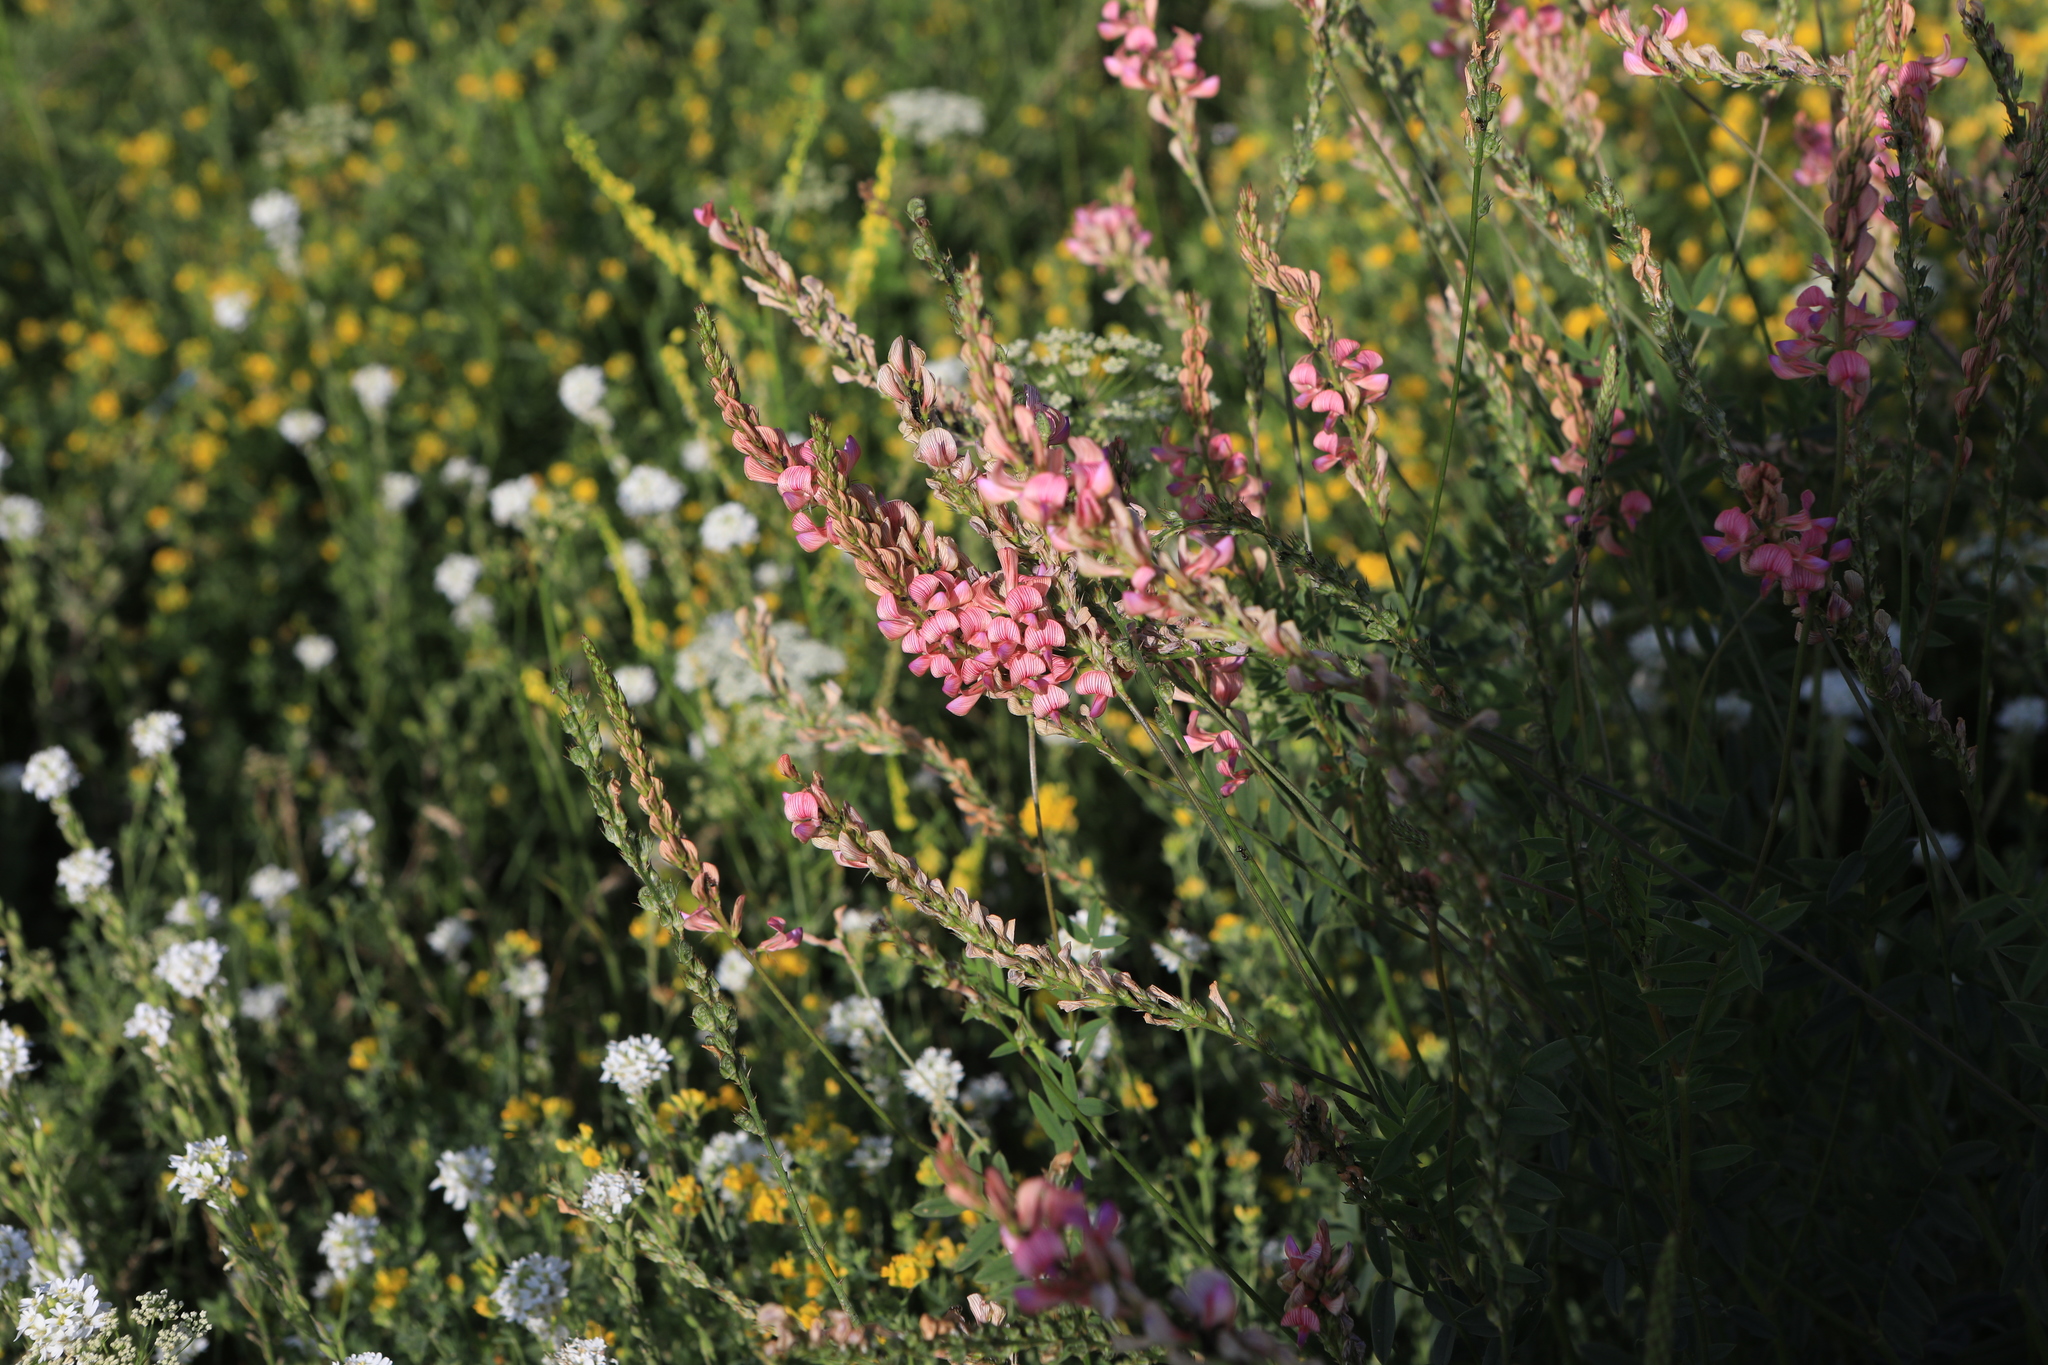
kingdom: Plantae
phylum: Tracheophyta
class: Magnoliopsida
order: Fabales
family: Fabaceae
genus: Onobrychis
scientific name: Onobrychis viciifolia
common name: Sainfoin
